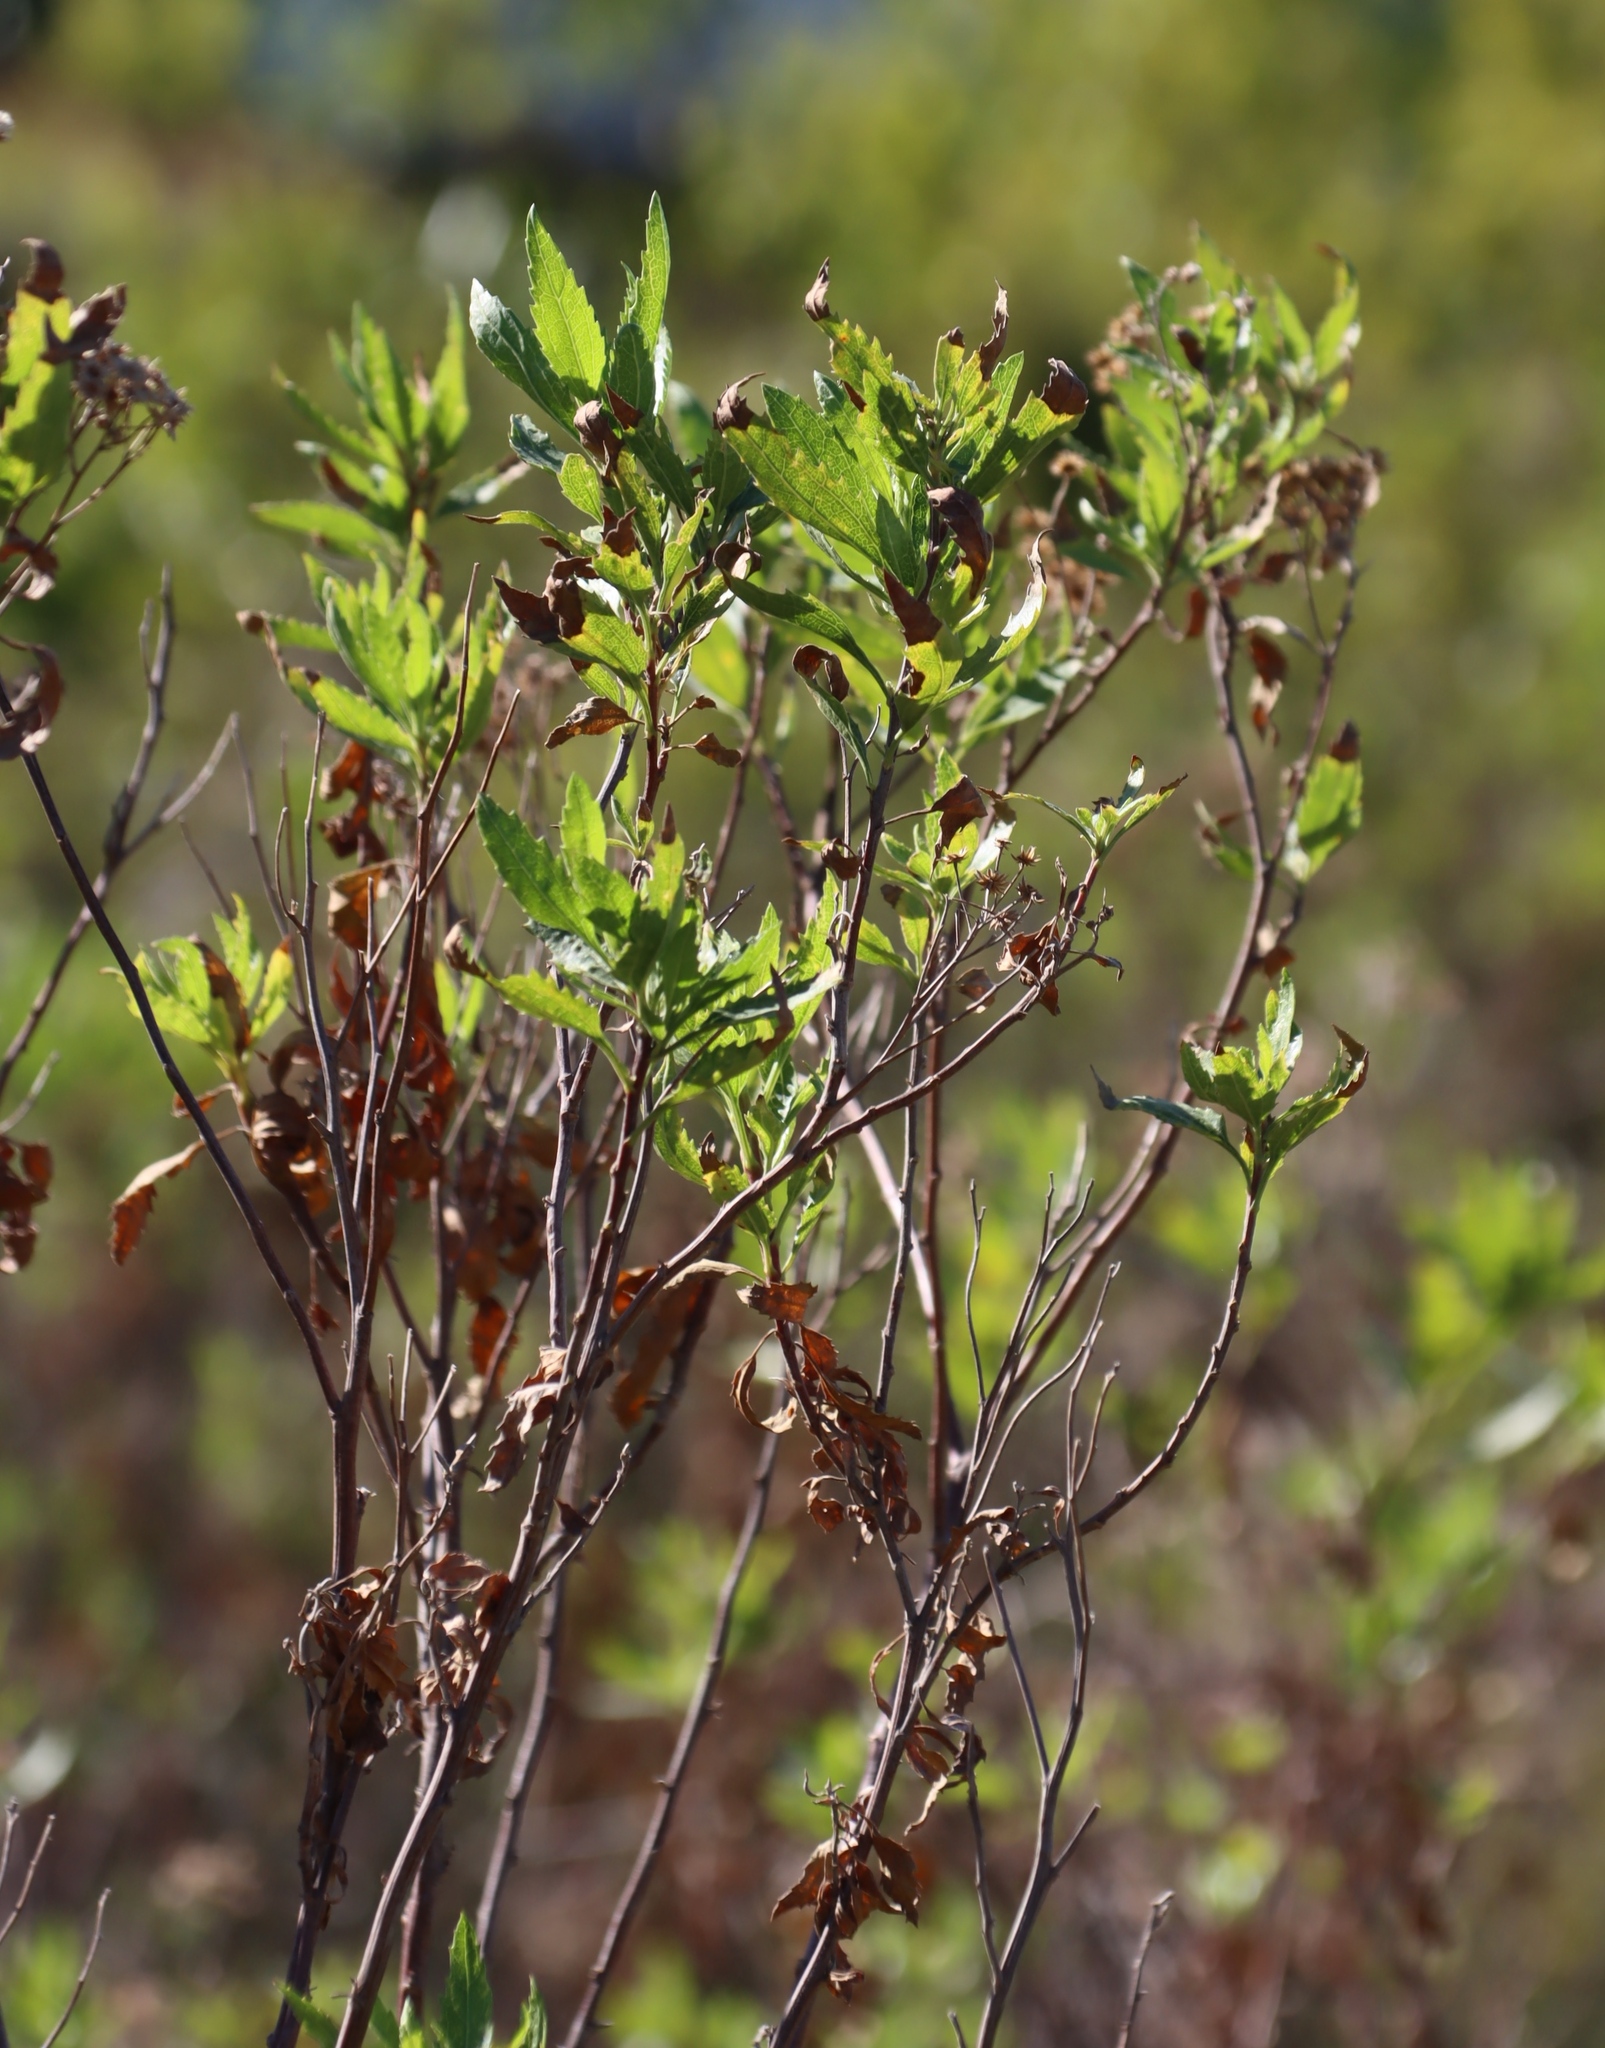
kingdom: Plantae
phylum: Tracheophyta
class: Magnoliopsida
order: Asterales
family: Asteraceae
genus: Nidorella
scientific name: Nidorella ivifolia
